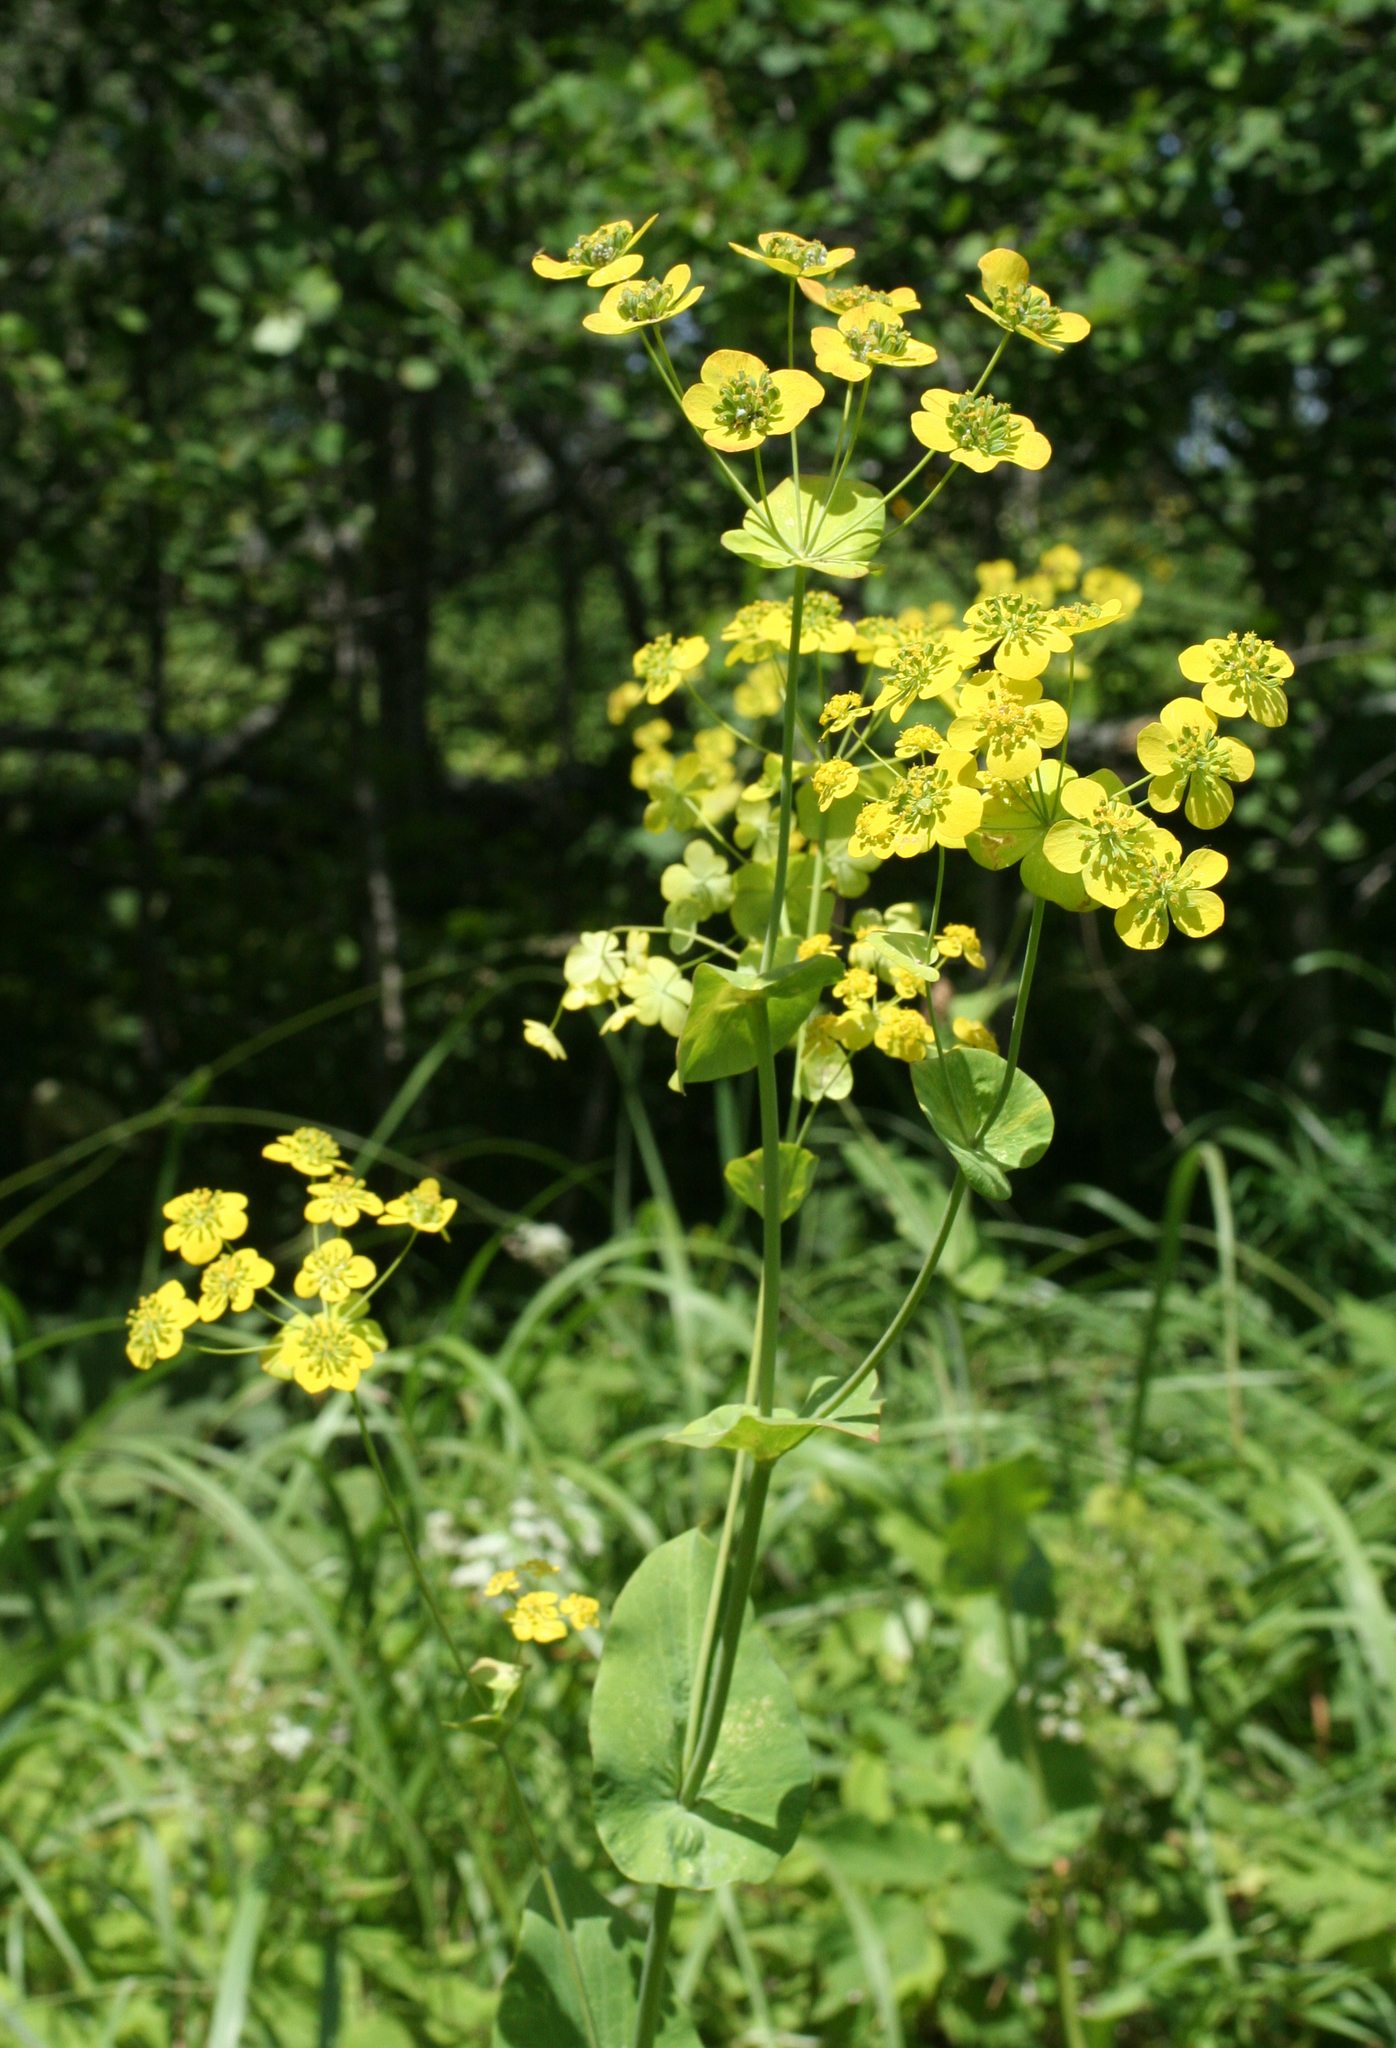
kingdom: Plantae
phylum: Tracheophyta
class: Magnoliopsida
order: Apiales
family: Apiaceae
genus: Bupleurum
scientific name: Bupleurum aureum
